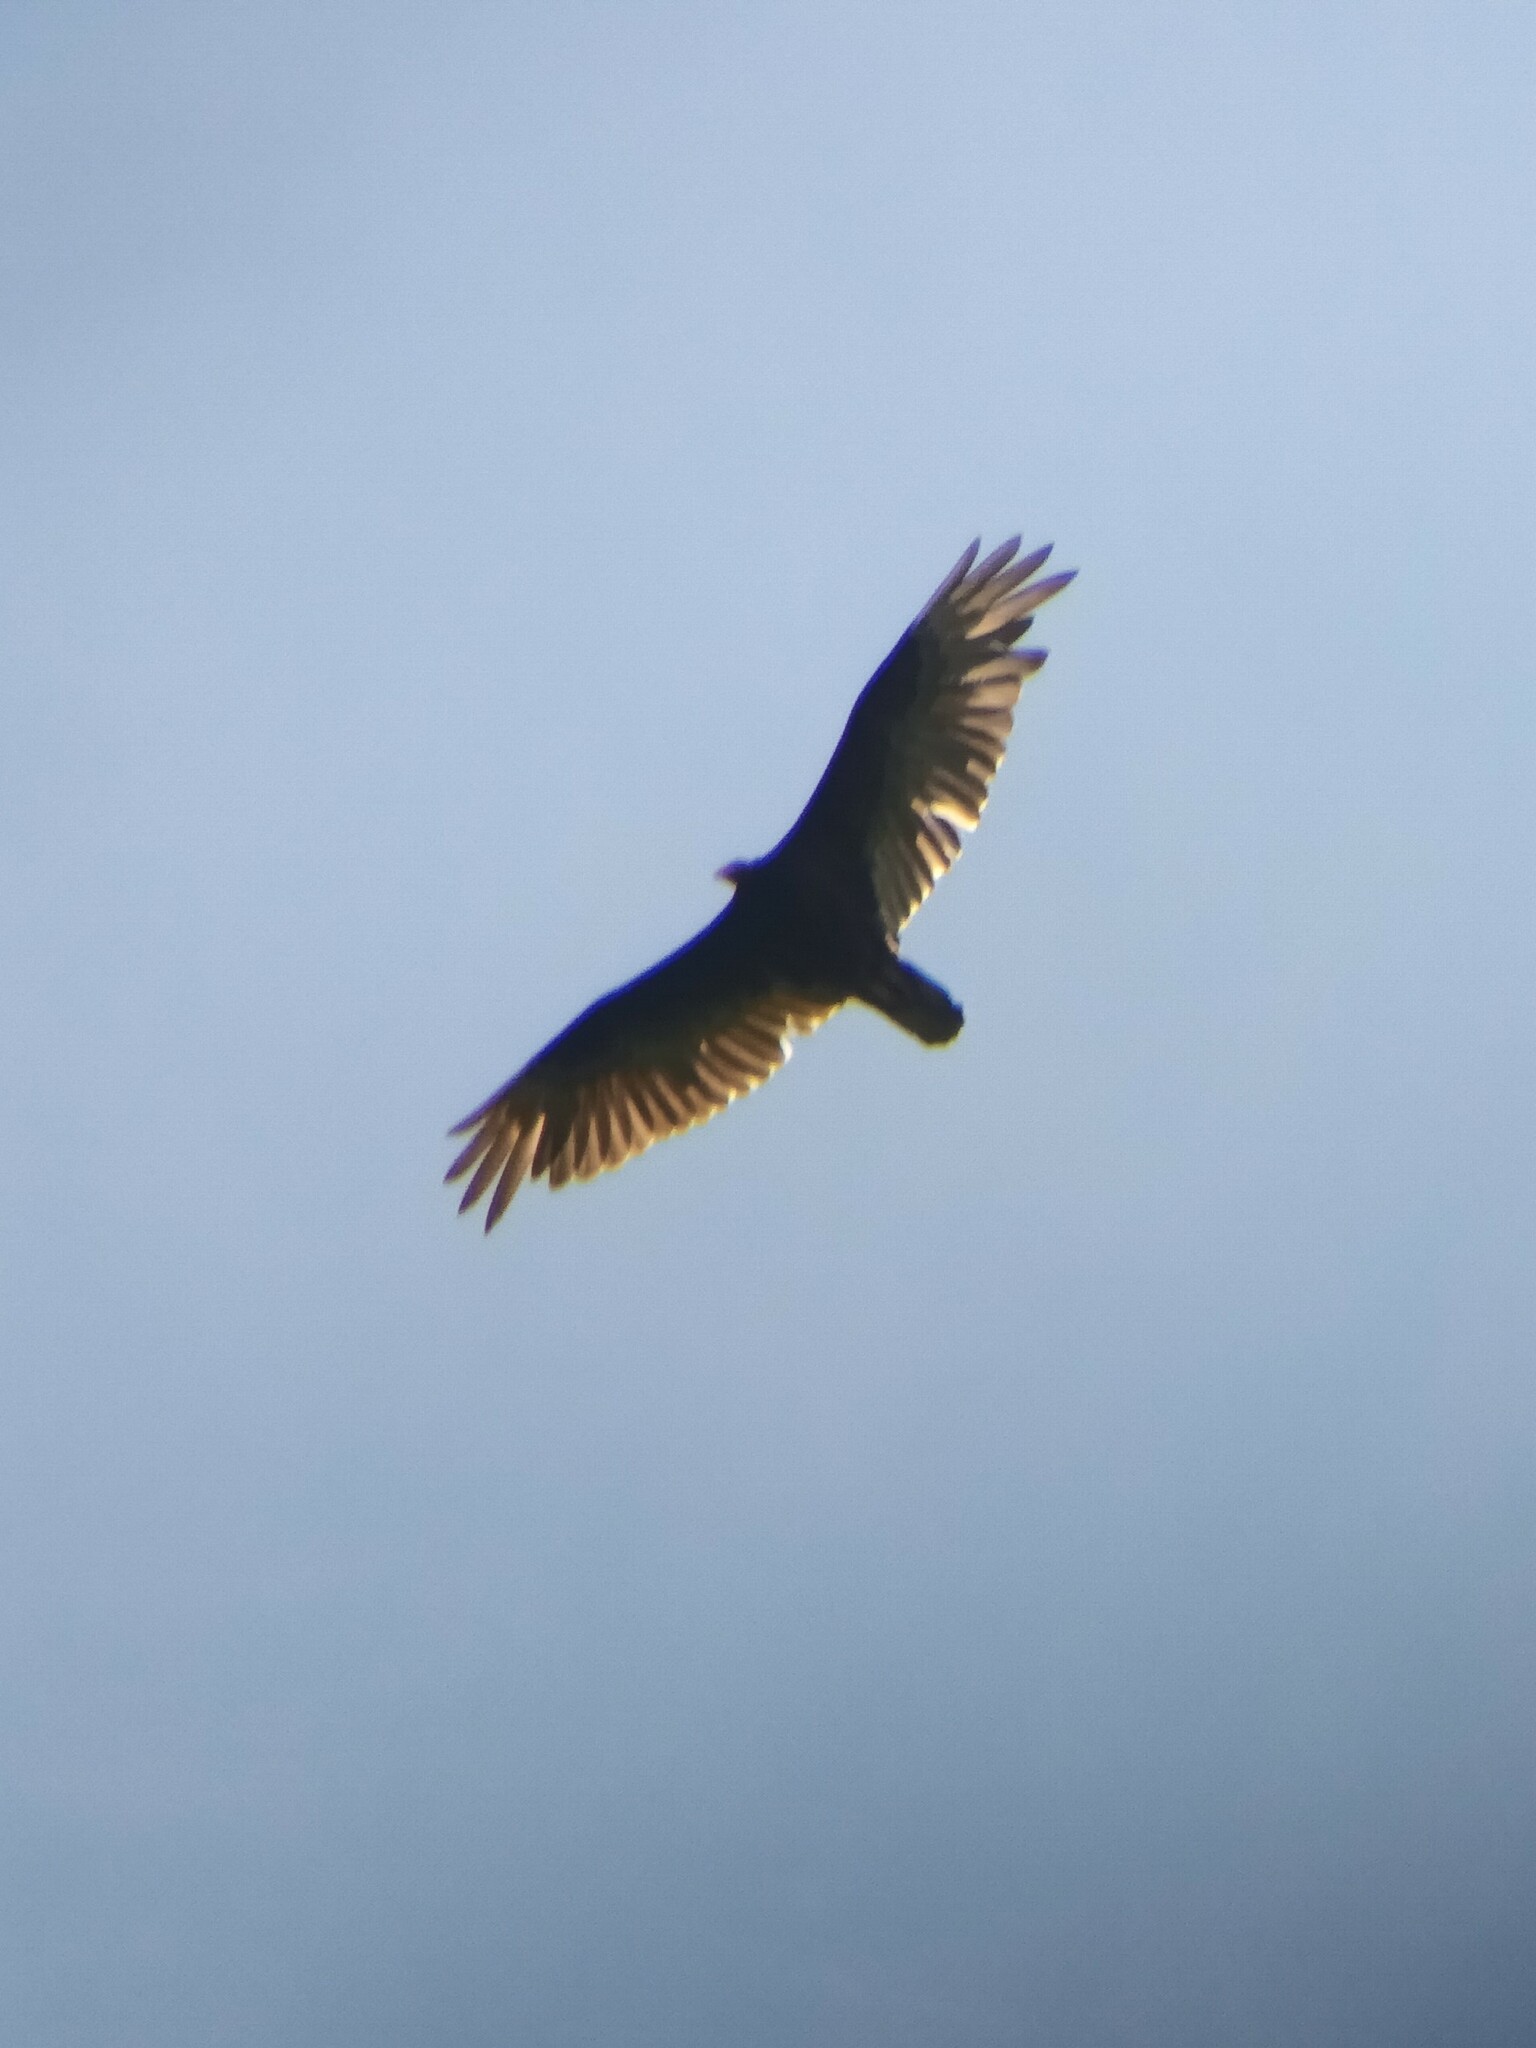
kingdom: Animalia
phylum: Chordata
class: Aves
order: Accipitriformes
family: Cathartidae
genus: Cathartes
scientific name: Cathartes aura
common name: Turkey vulture
